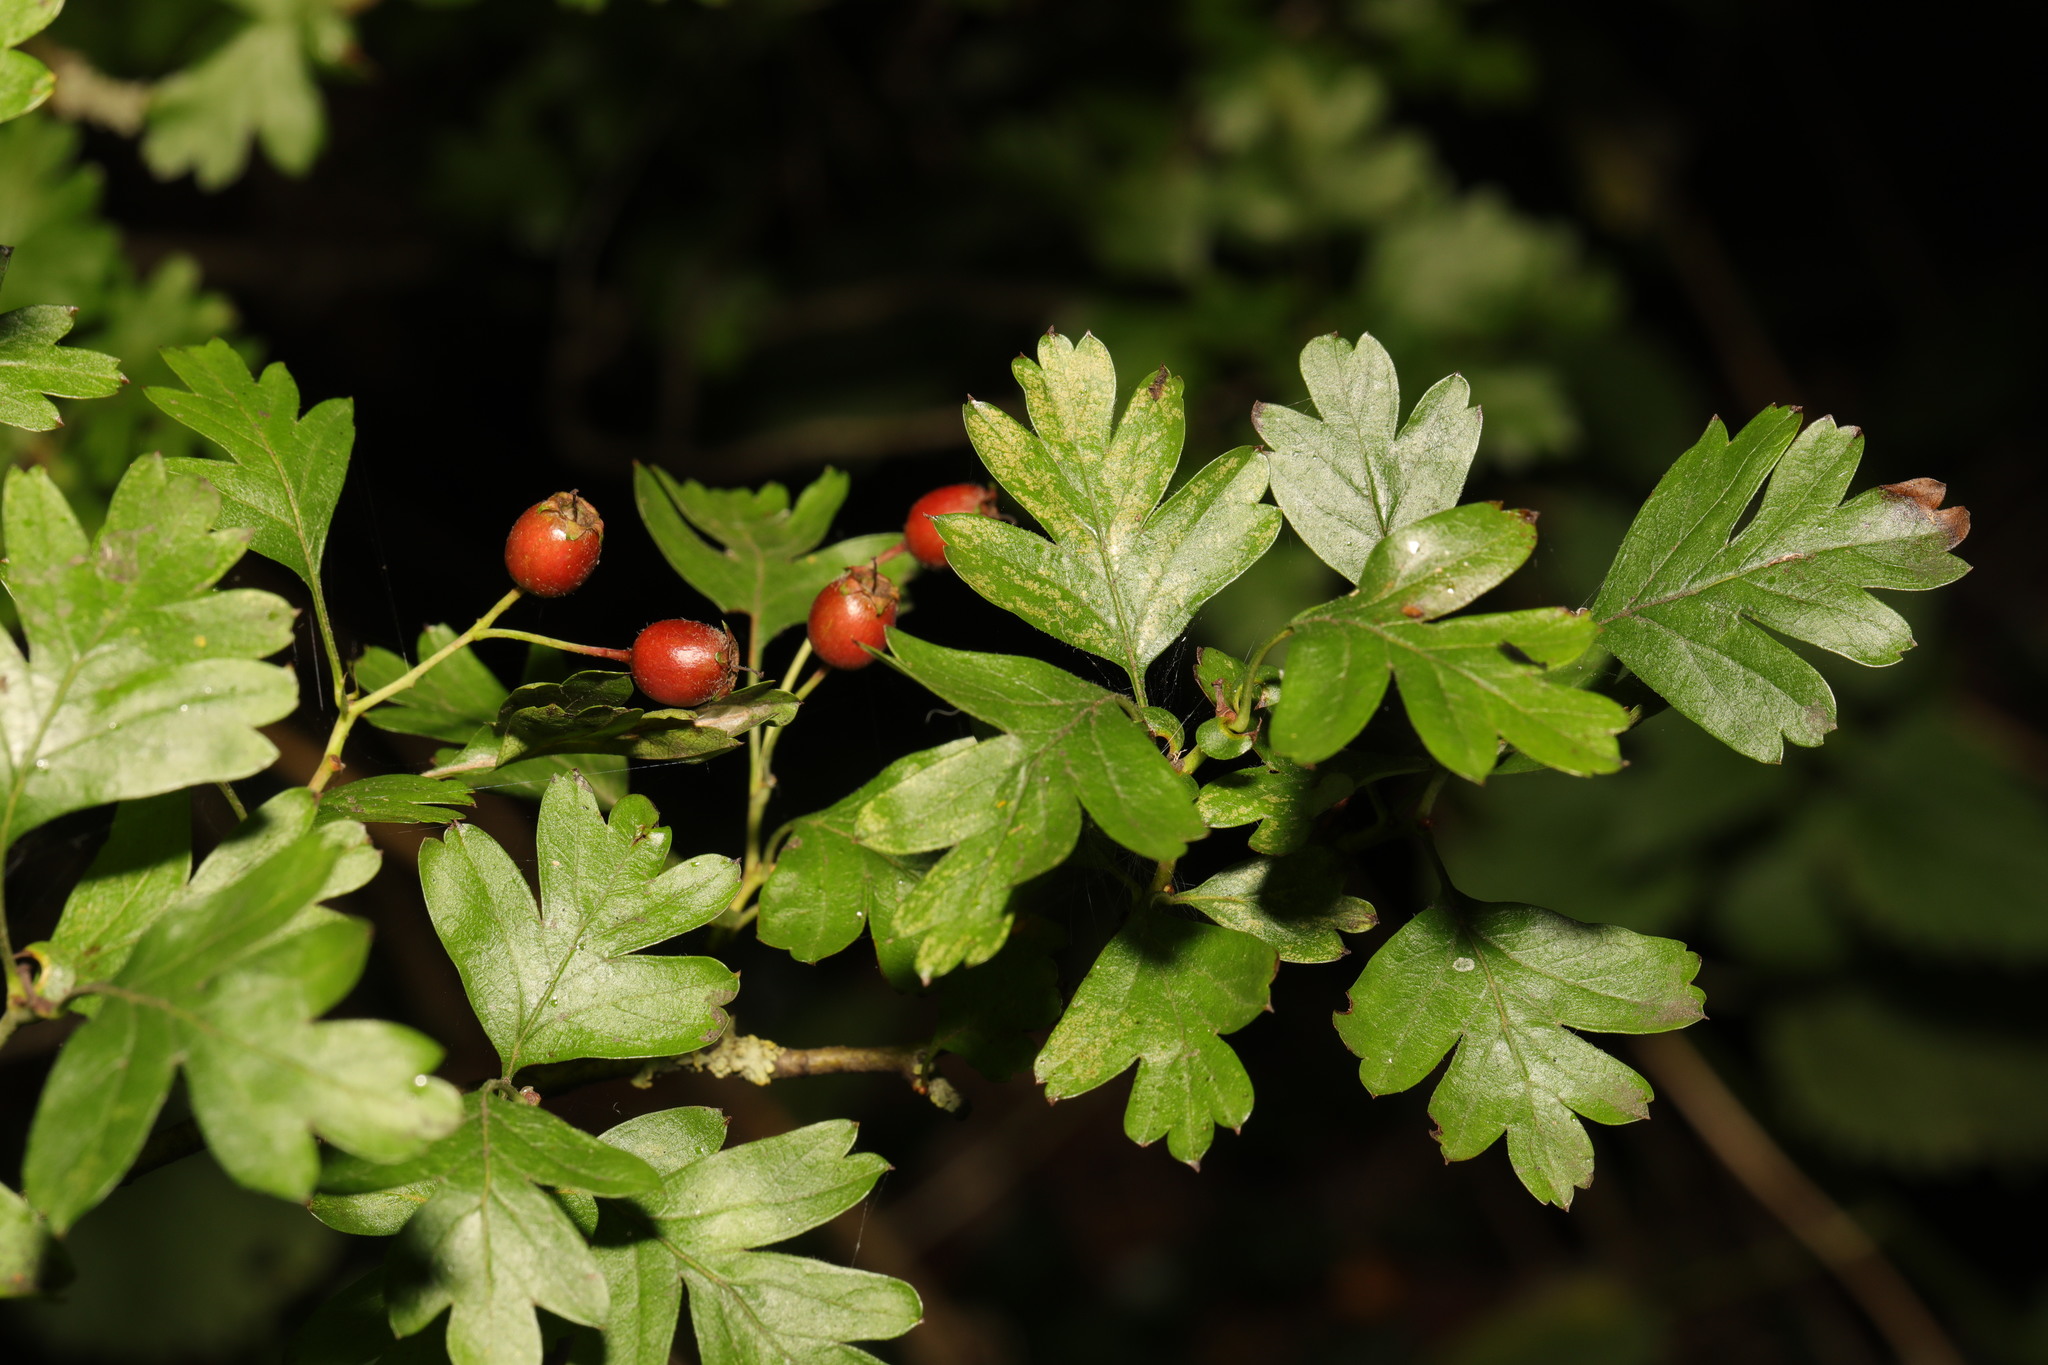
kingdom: Plantae
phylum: Tracheophyta
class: Magnoliopsida
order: Rosales
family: Rosaceae
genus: Crataegus
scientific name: Crataegus monogyna
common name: Hawthorn
